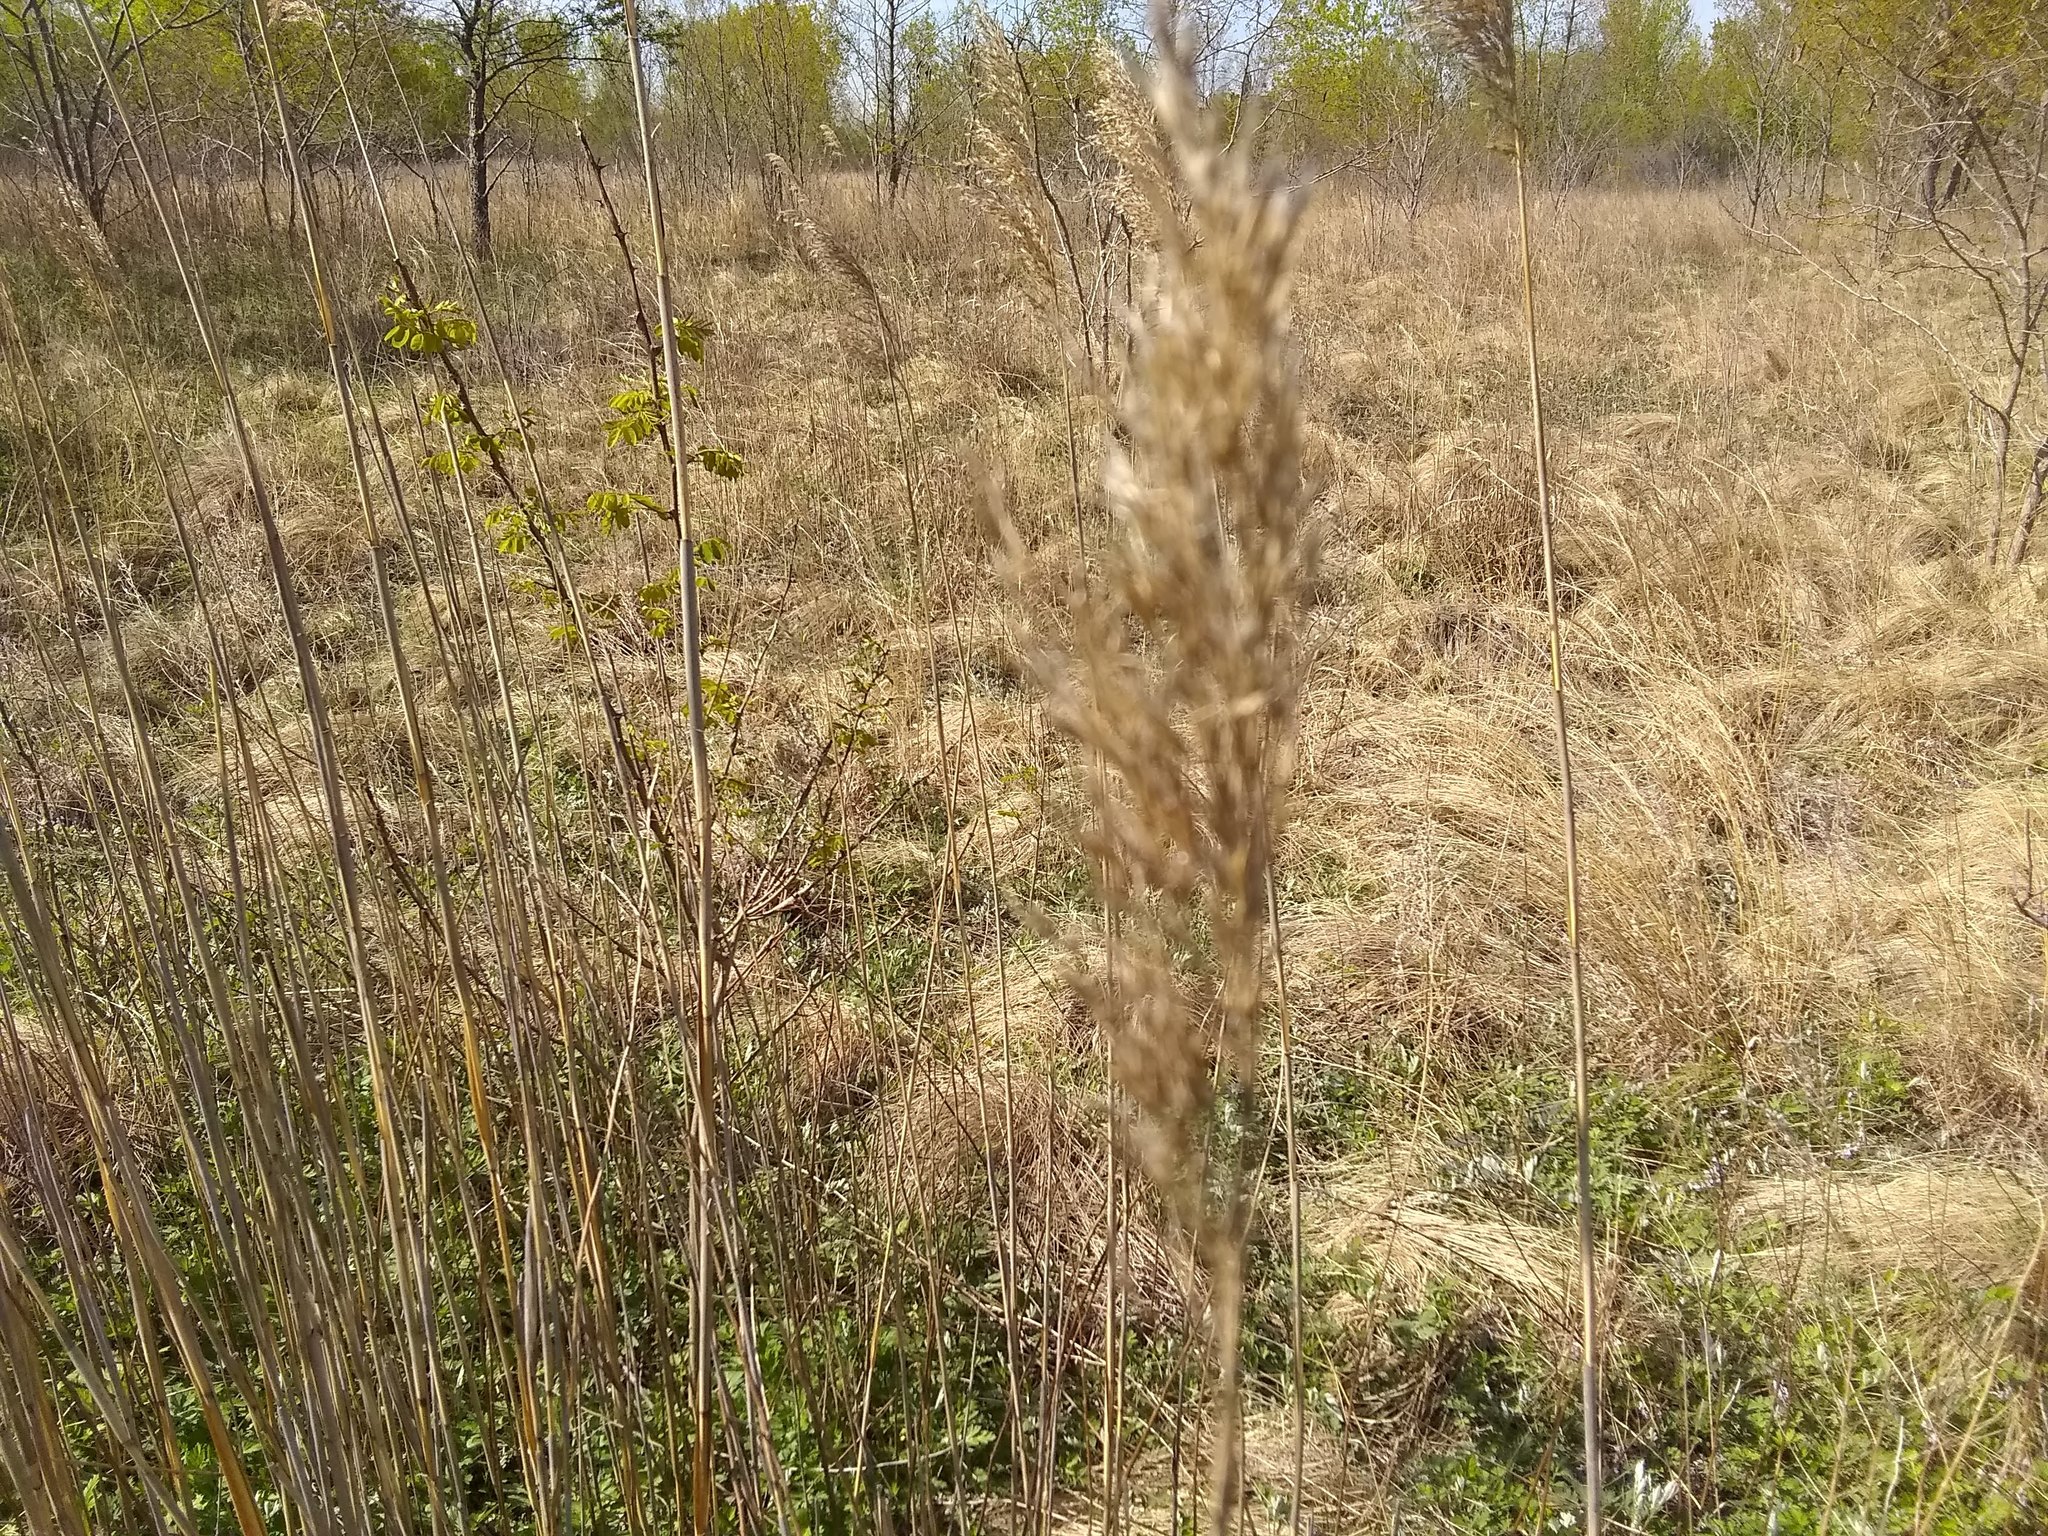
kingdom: Plantae
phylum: Tracheophyta
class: Liliopsida
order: Poales
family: Poaceae
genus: Phragmites
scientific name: Phragmites australis
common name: Common reed
